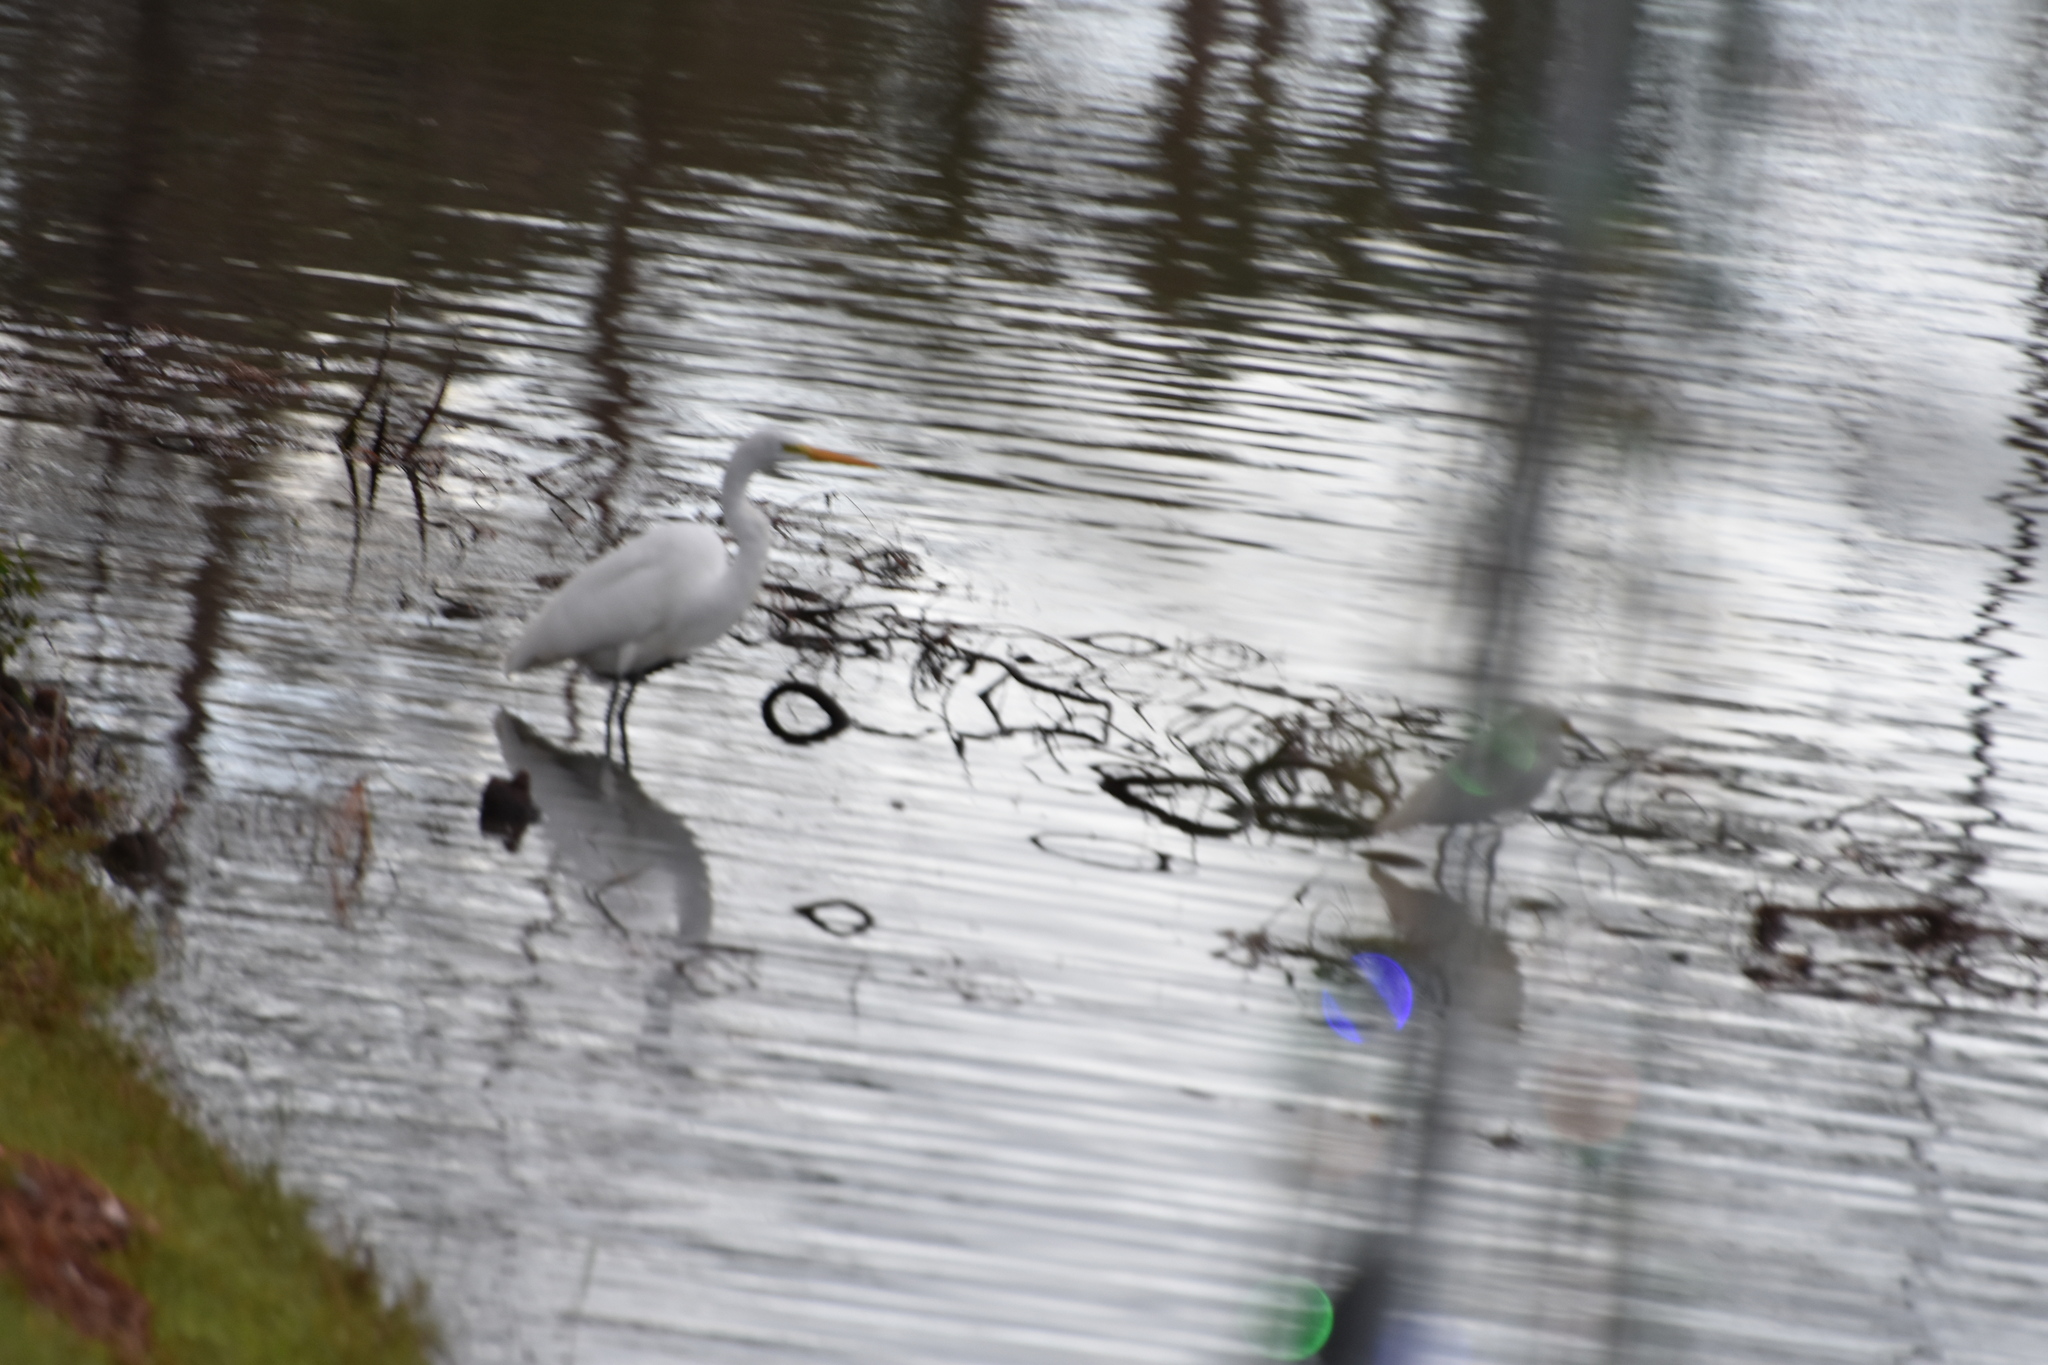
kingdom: Animalia
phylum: Chordata
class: Aves
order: Pelecaniformes
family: Ardeidae
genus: Ardea
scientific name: Ardea alba
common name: Great egret
